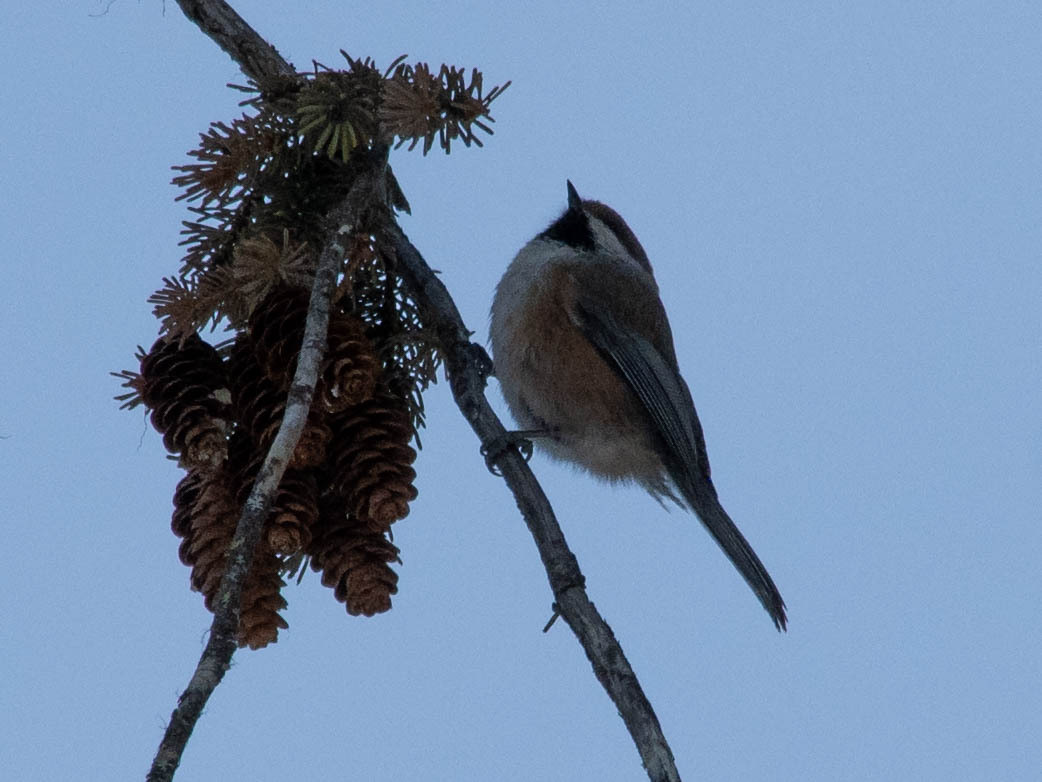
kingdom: Animalia
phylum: Chordata
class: Aves
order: Passeriformes
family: Paridae
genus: Poecile
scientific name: Poecile hudsonicus
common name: Boreal chickadee
